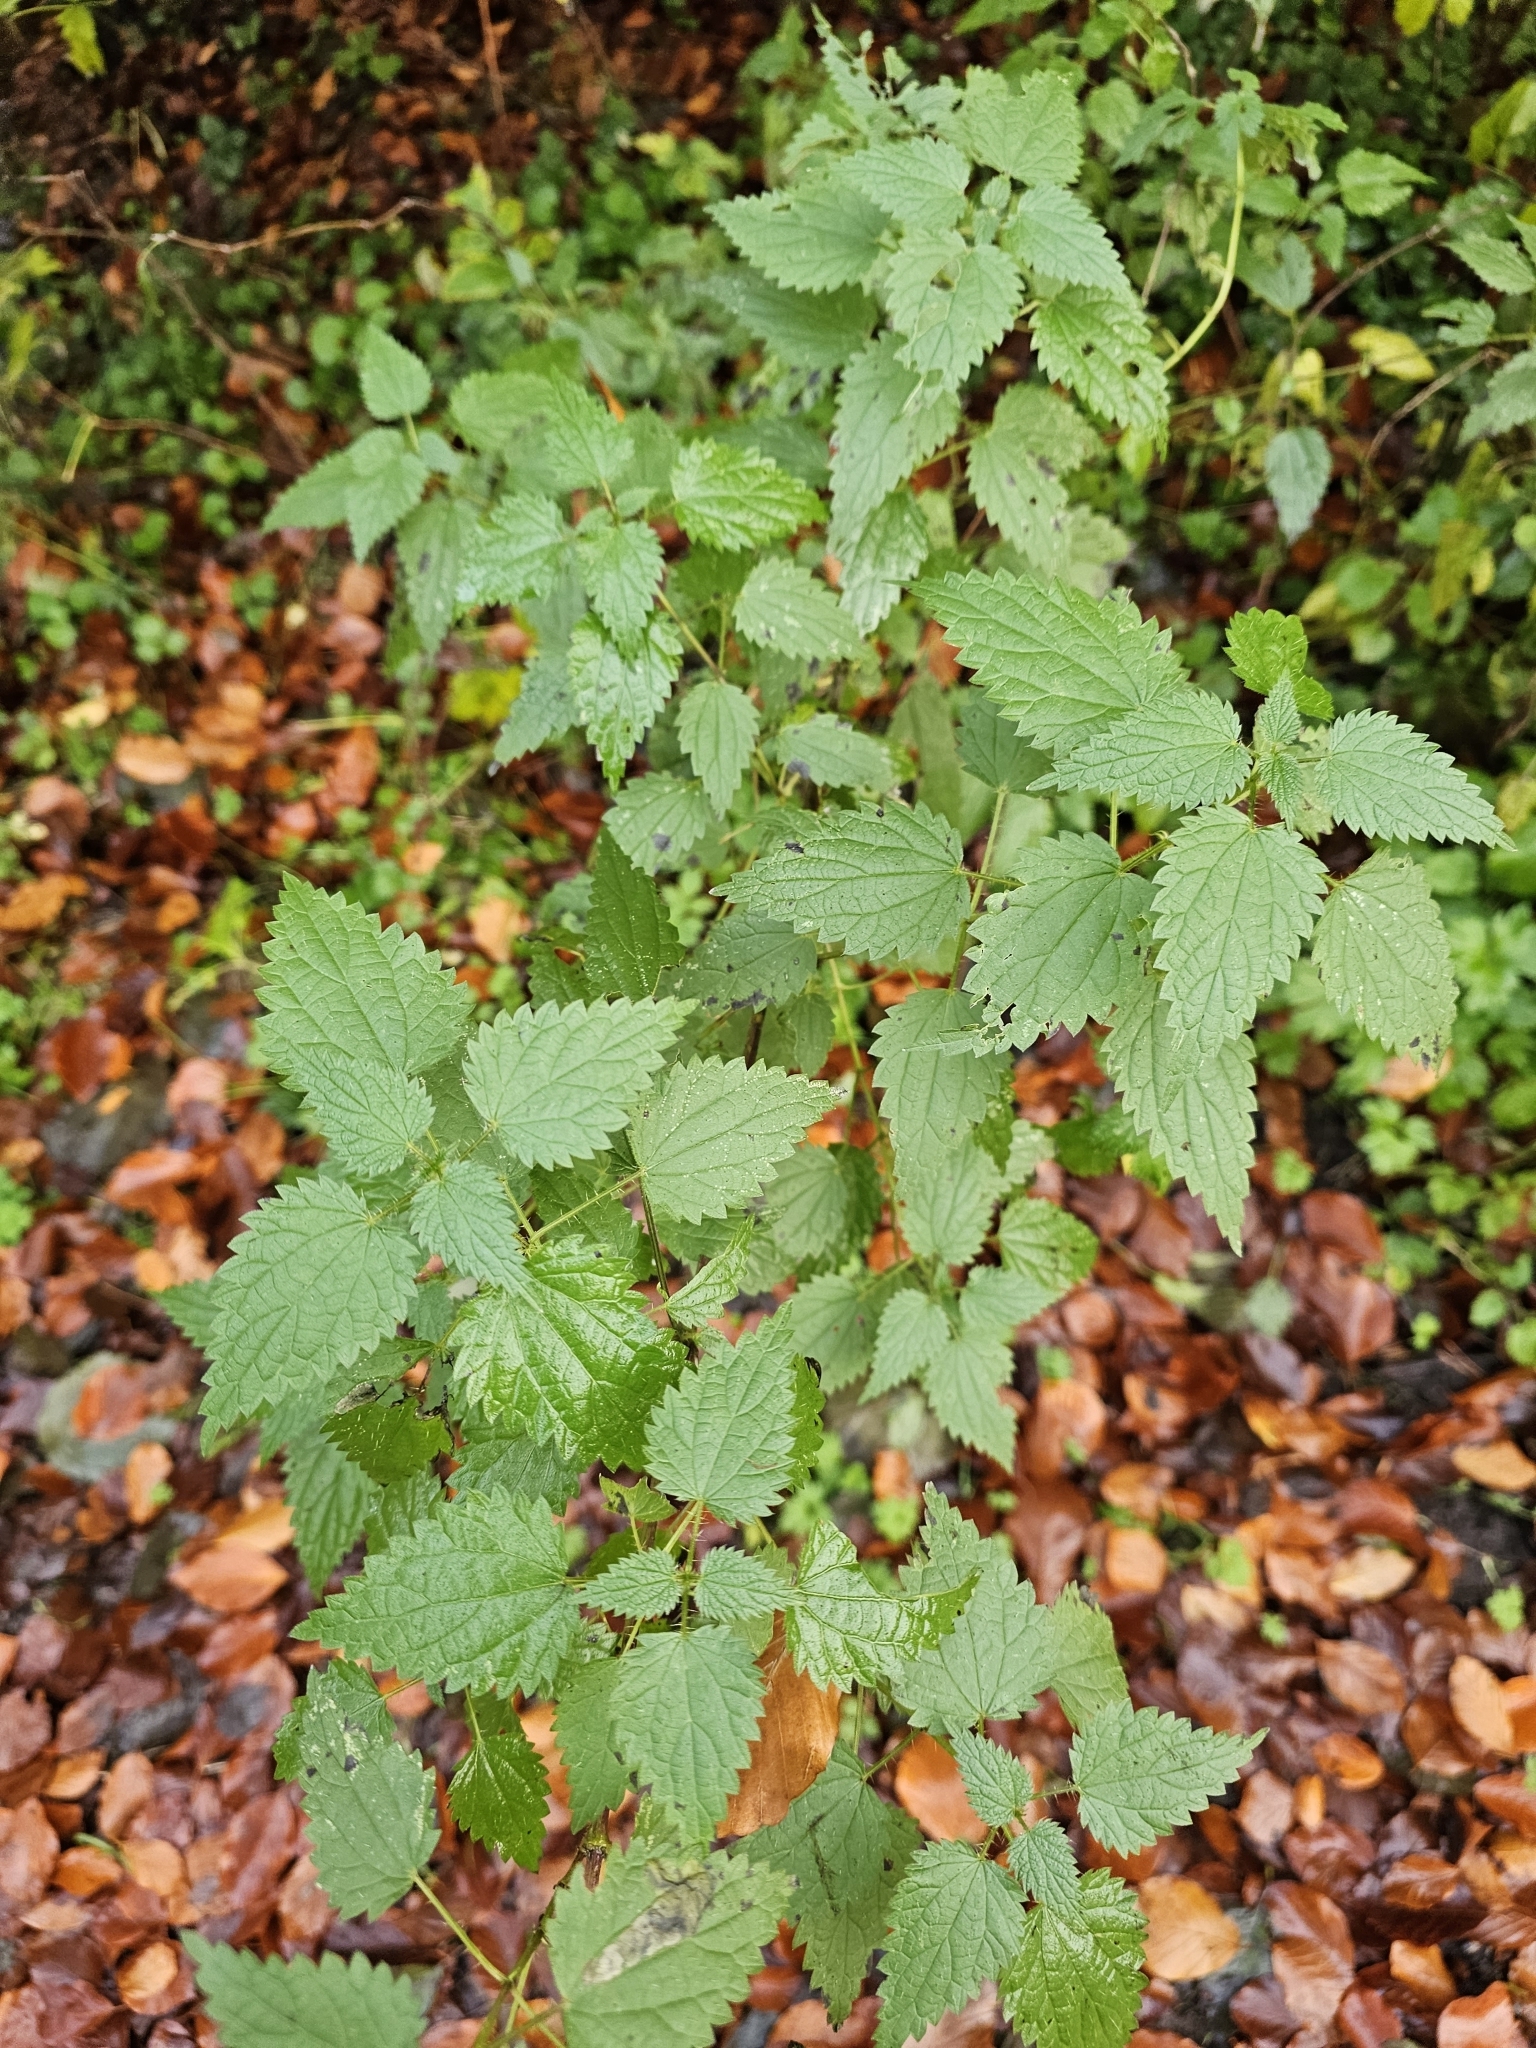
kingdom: Plantae
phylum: Tracheophyta
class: Magnoliopsida
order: Rosales
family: Urticaceae
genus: Urtica
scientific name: Urtica dioica
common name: Common nettle
